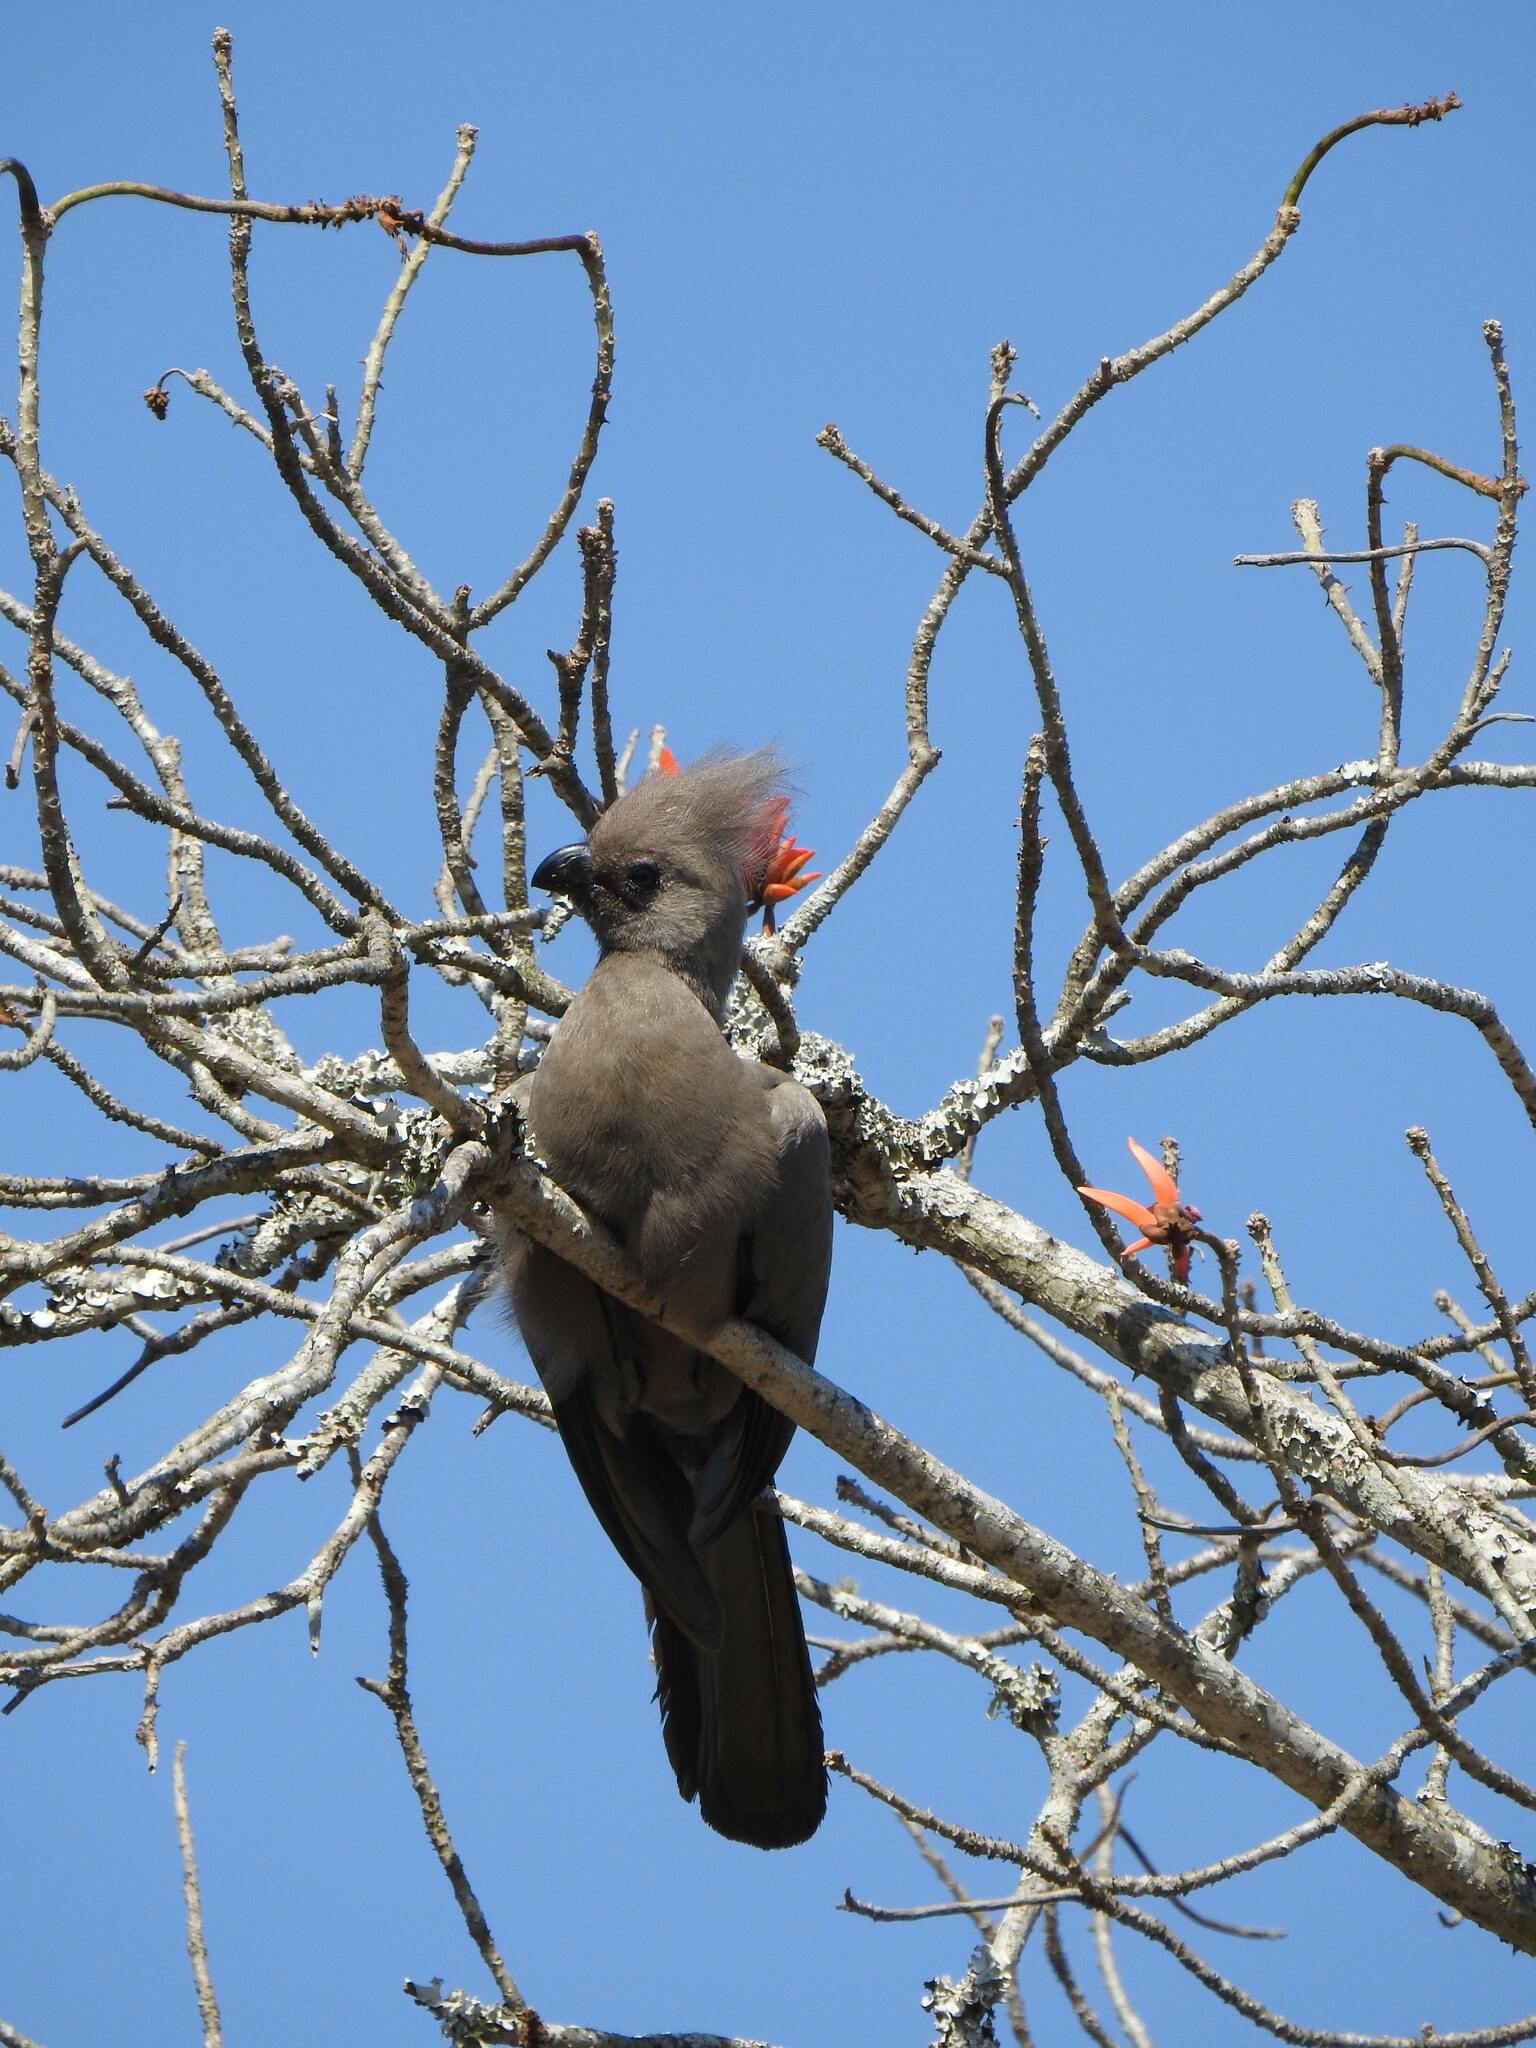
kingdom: Animalia
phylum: Chordata
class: Aves
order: Musophagiformes
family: Musophagidae
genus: Corythaixoides
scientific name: Corythaixoides concolor
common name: Grey go-away-bird
